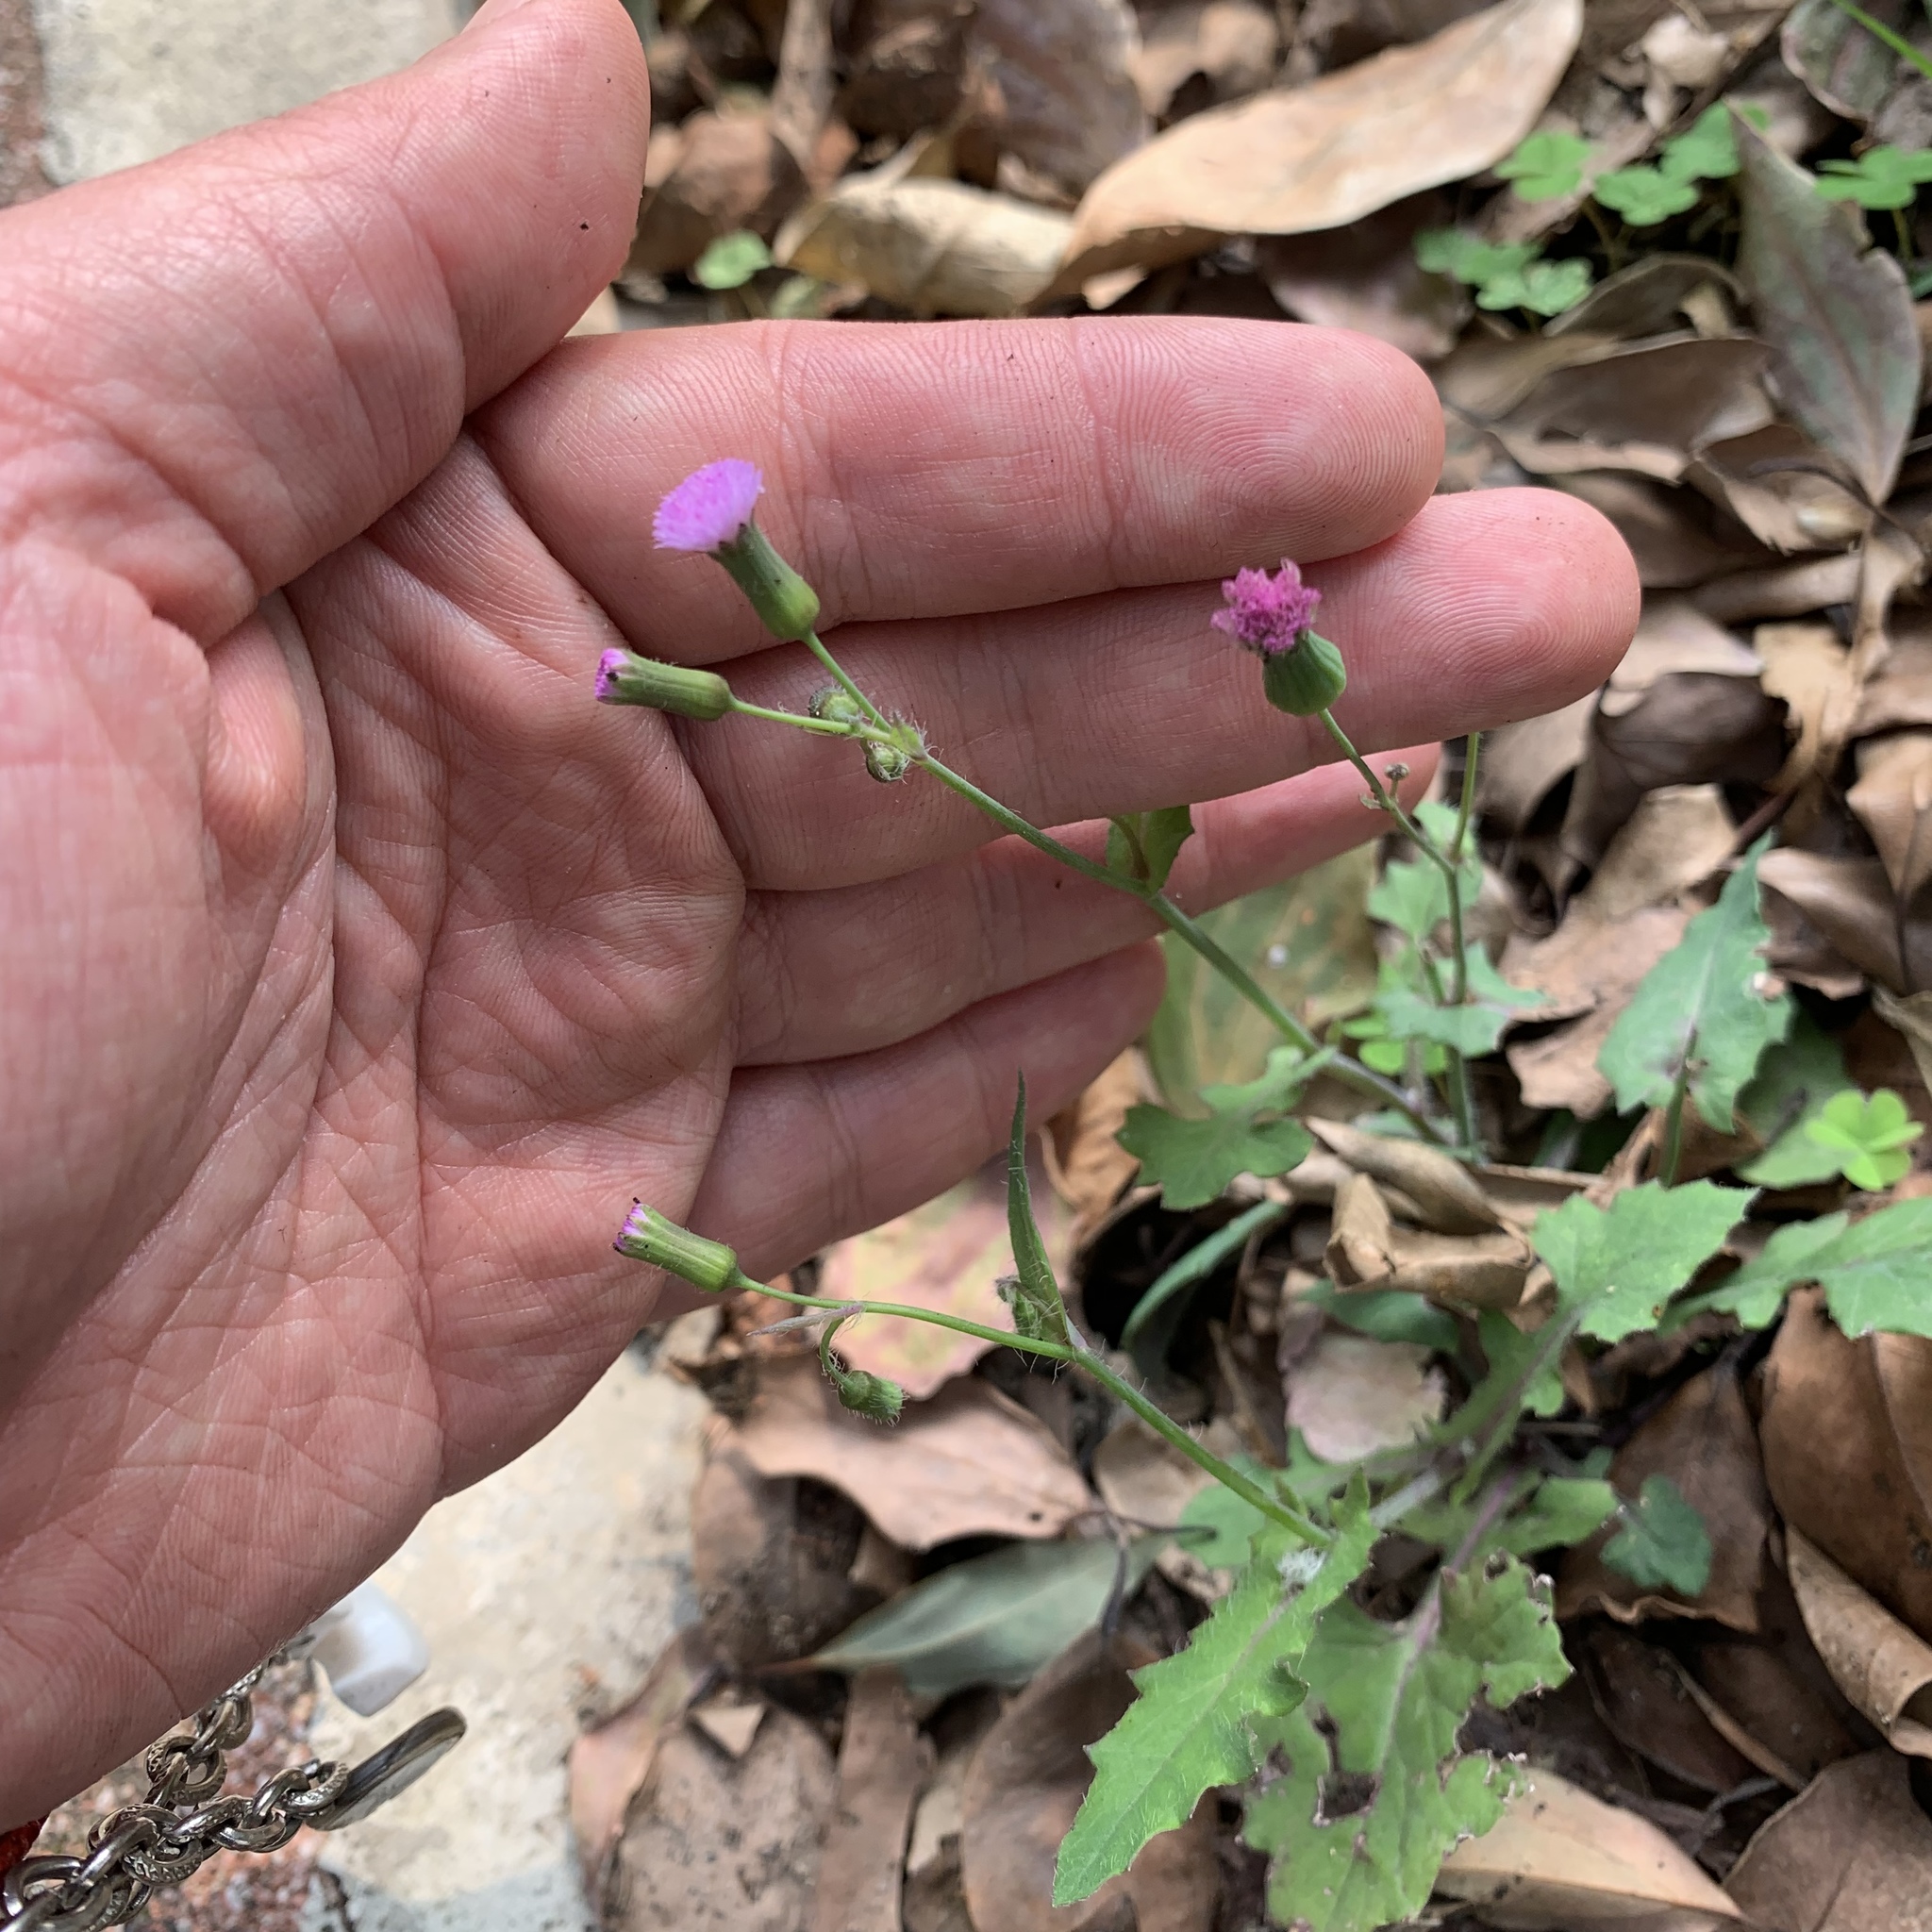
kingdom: Plantae
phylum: Tracheophyta
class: Magnoliopsida
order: Asterales
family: Asteraceae
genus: Emilia
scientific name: Emilia javanica
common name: Tassel-flower
